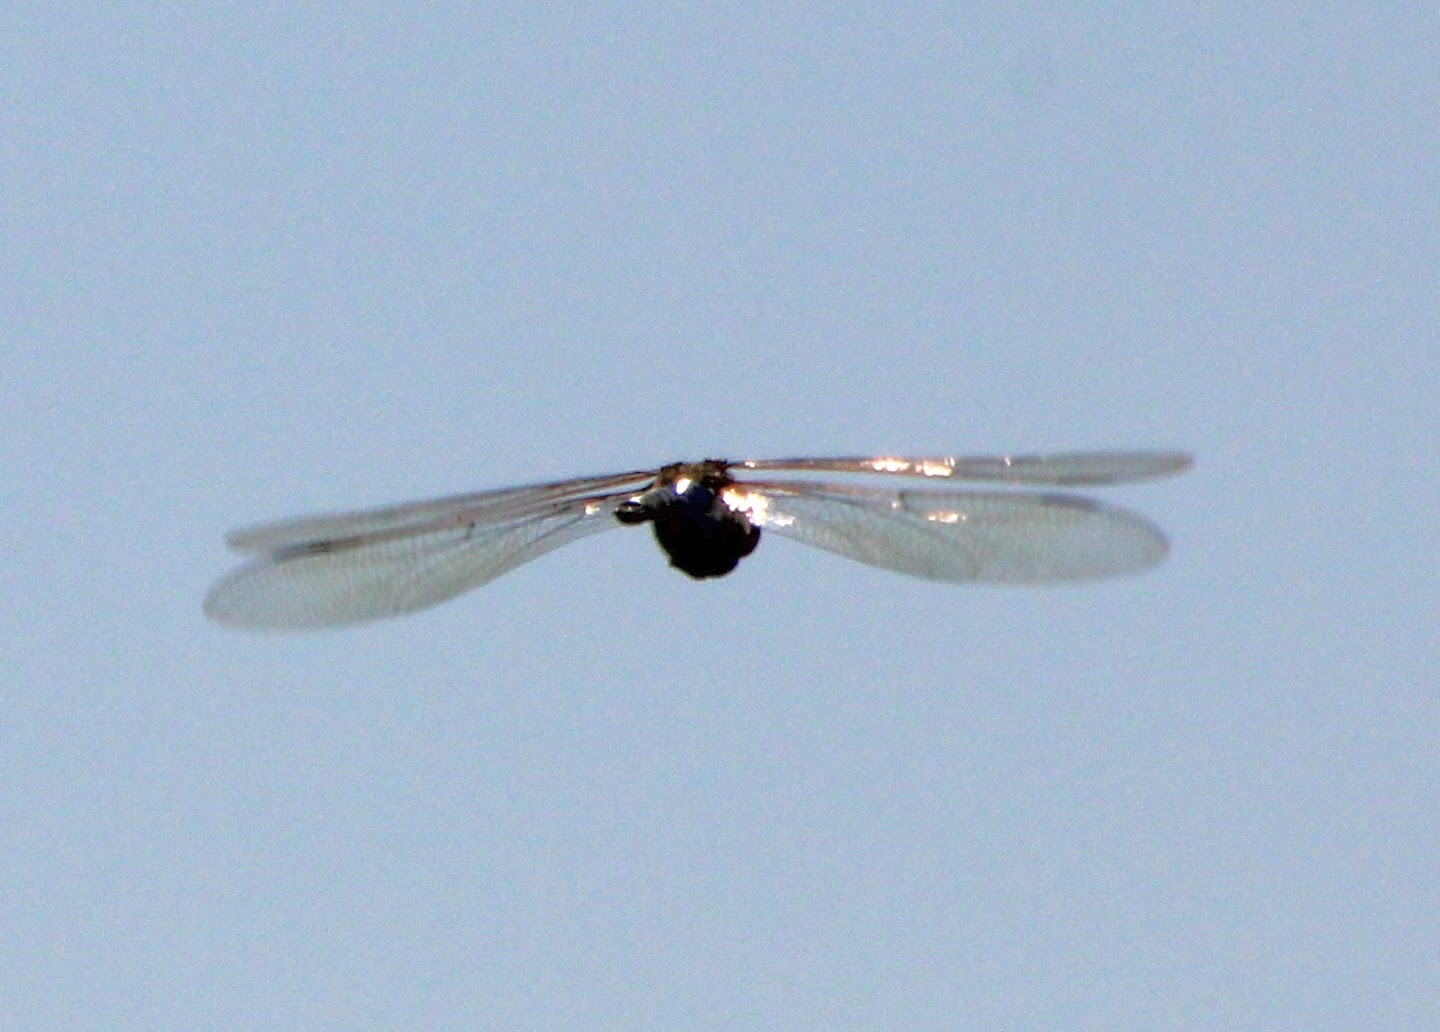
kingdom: Animalia
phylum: Arthropoda
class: Insecta
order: Odonata
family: Aeshnidae
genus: Anax
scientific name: Anax junius
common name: Common green darner
